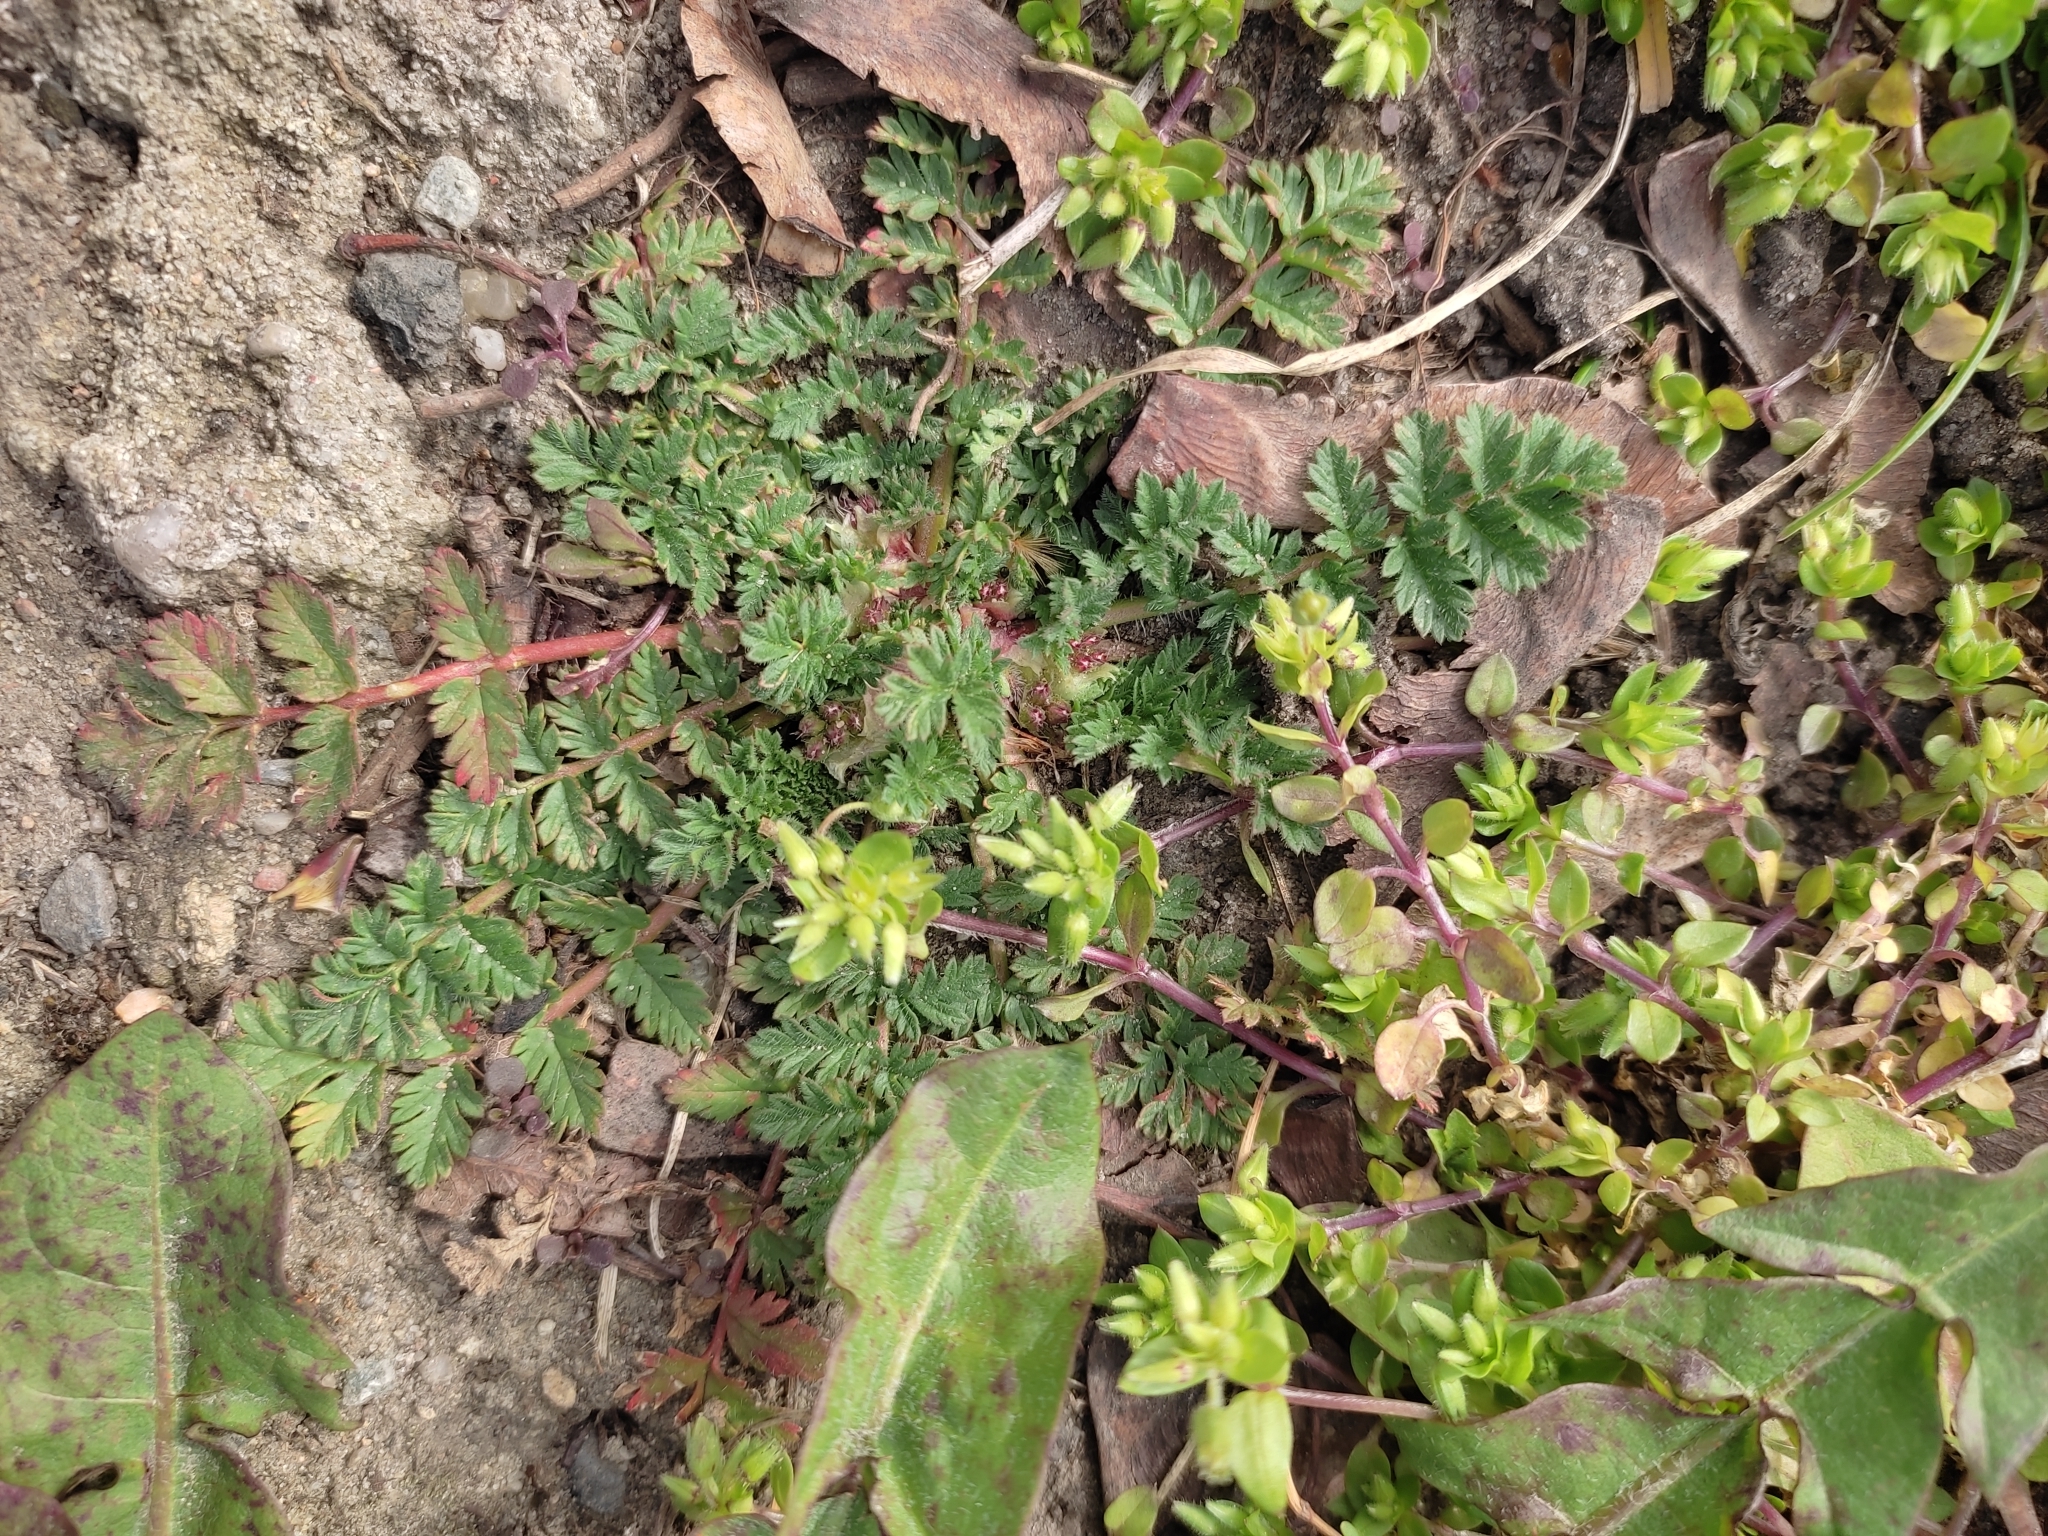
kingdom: Plantae
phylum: Tracheophyta
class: Magnoliopsida
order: Geraniales
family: Geraniaceae
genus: Erodium
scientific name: Erodium cicutarium
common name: Common stork's-bill
